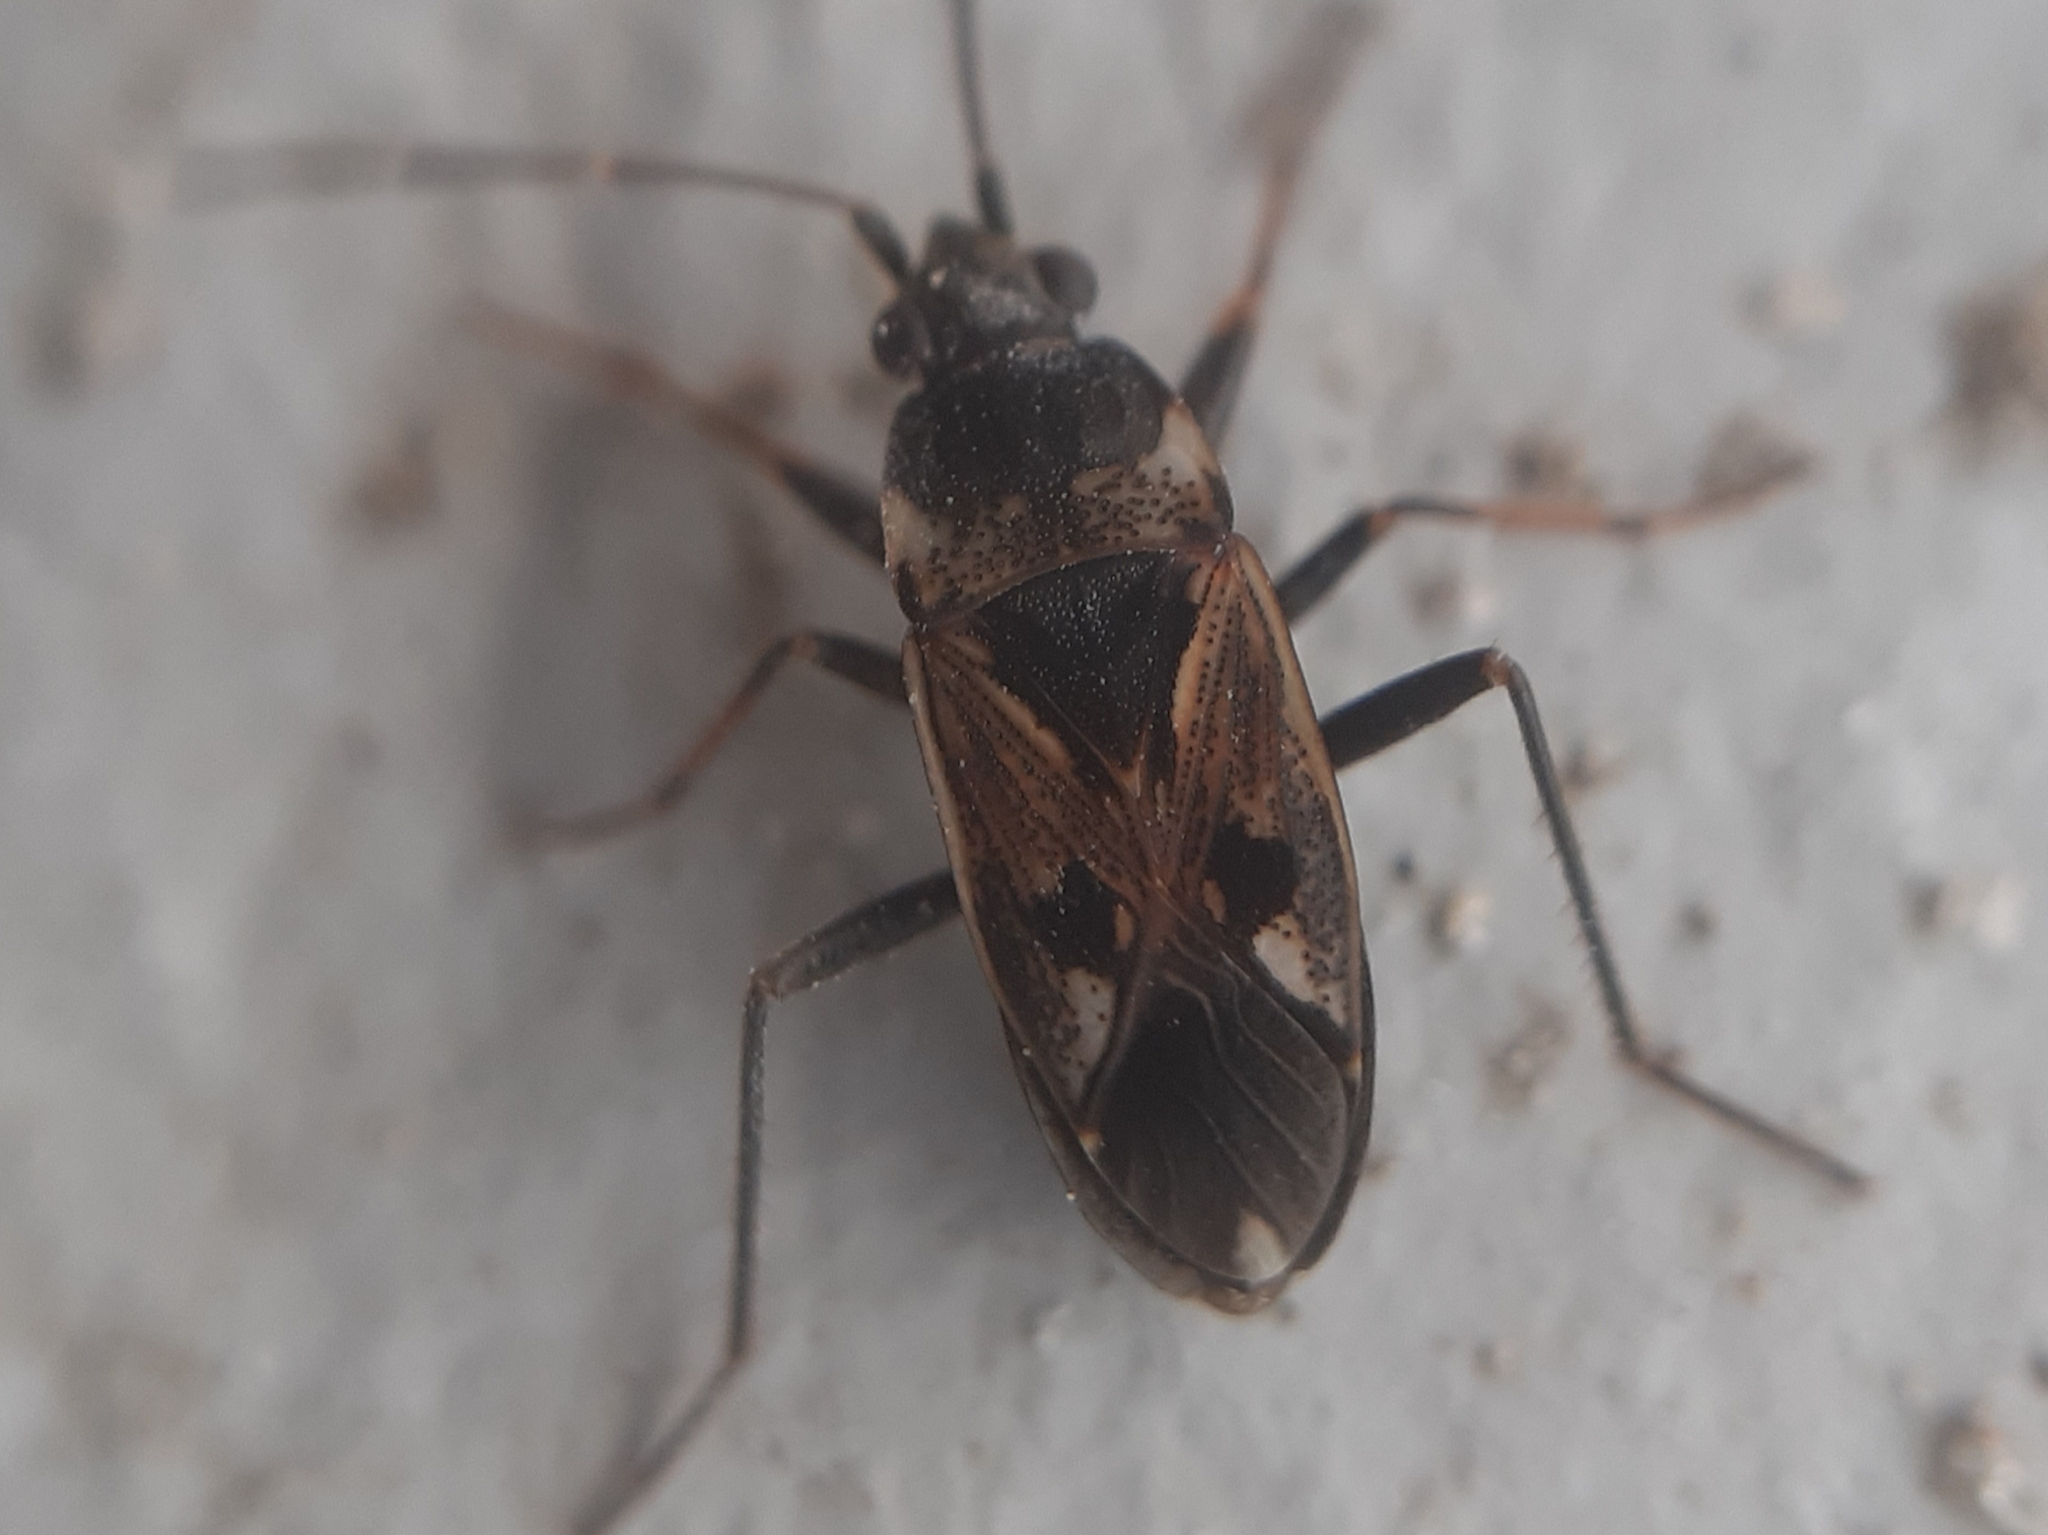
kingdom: Animalia
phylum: Arthropoda
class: Insecta
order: Hemiptera
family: Rhyparochromidae
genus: Rhyparochromus
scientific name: Rhyparochromus vulgaris
